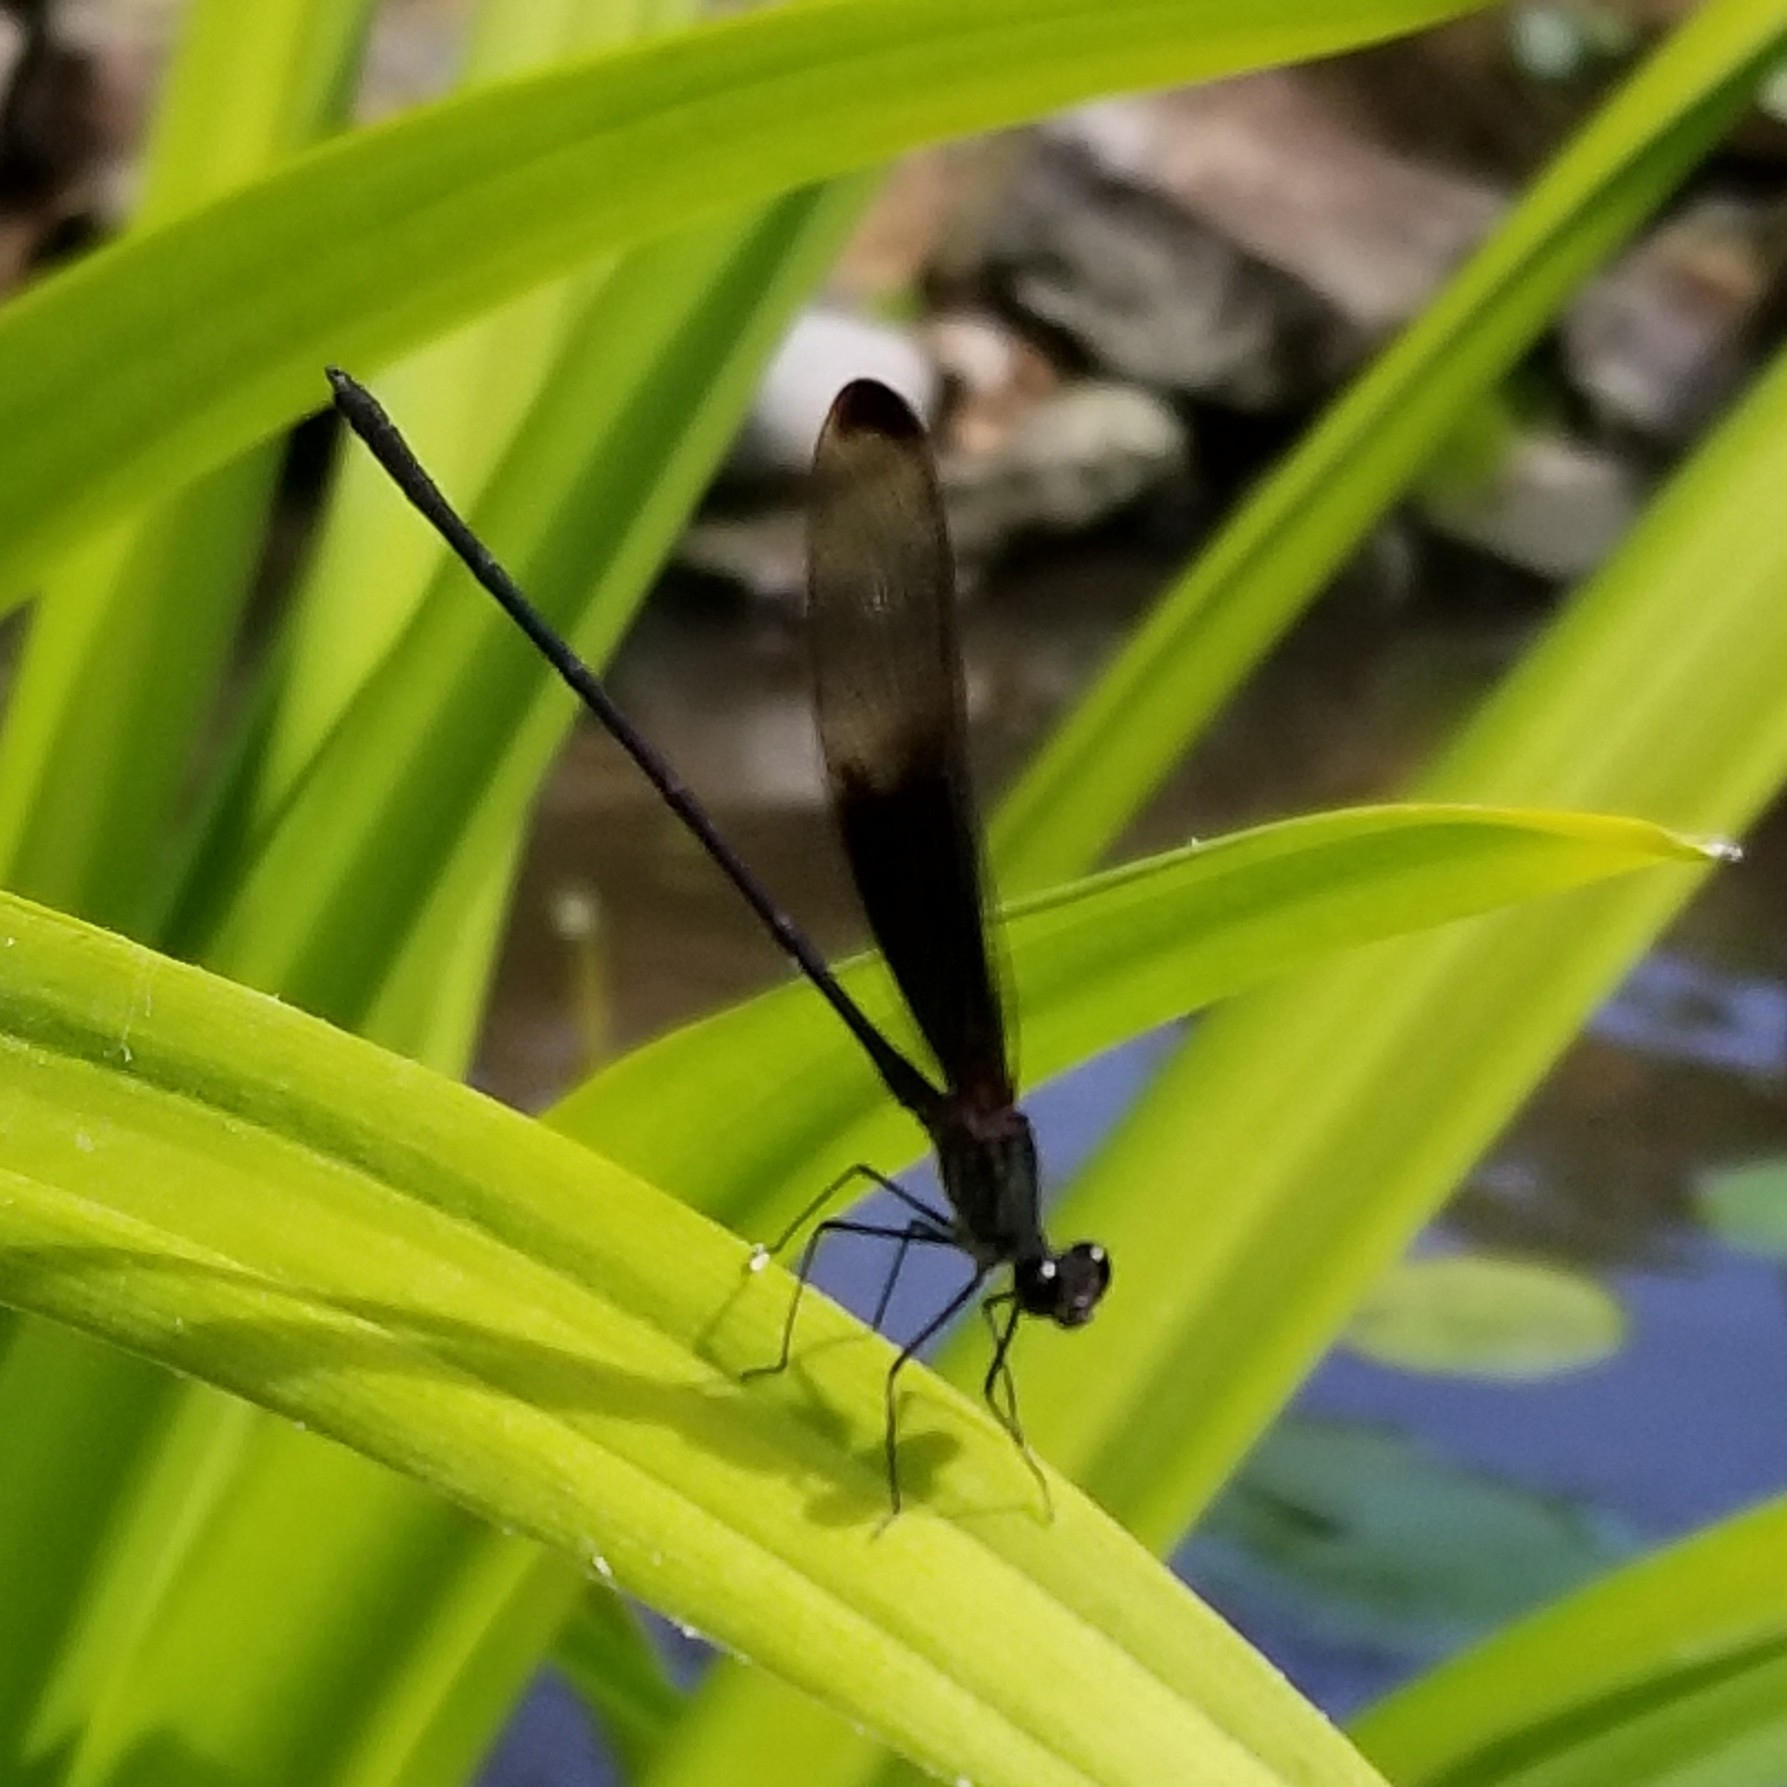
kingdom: Animalia
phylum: Arthropoda
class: Insecta
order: Odonata
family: Calopterygidae
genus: Hetaerina
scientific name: Hetaerina titia
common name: Smoky rubyspot
